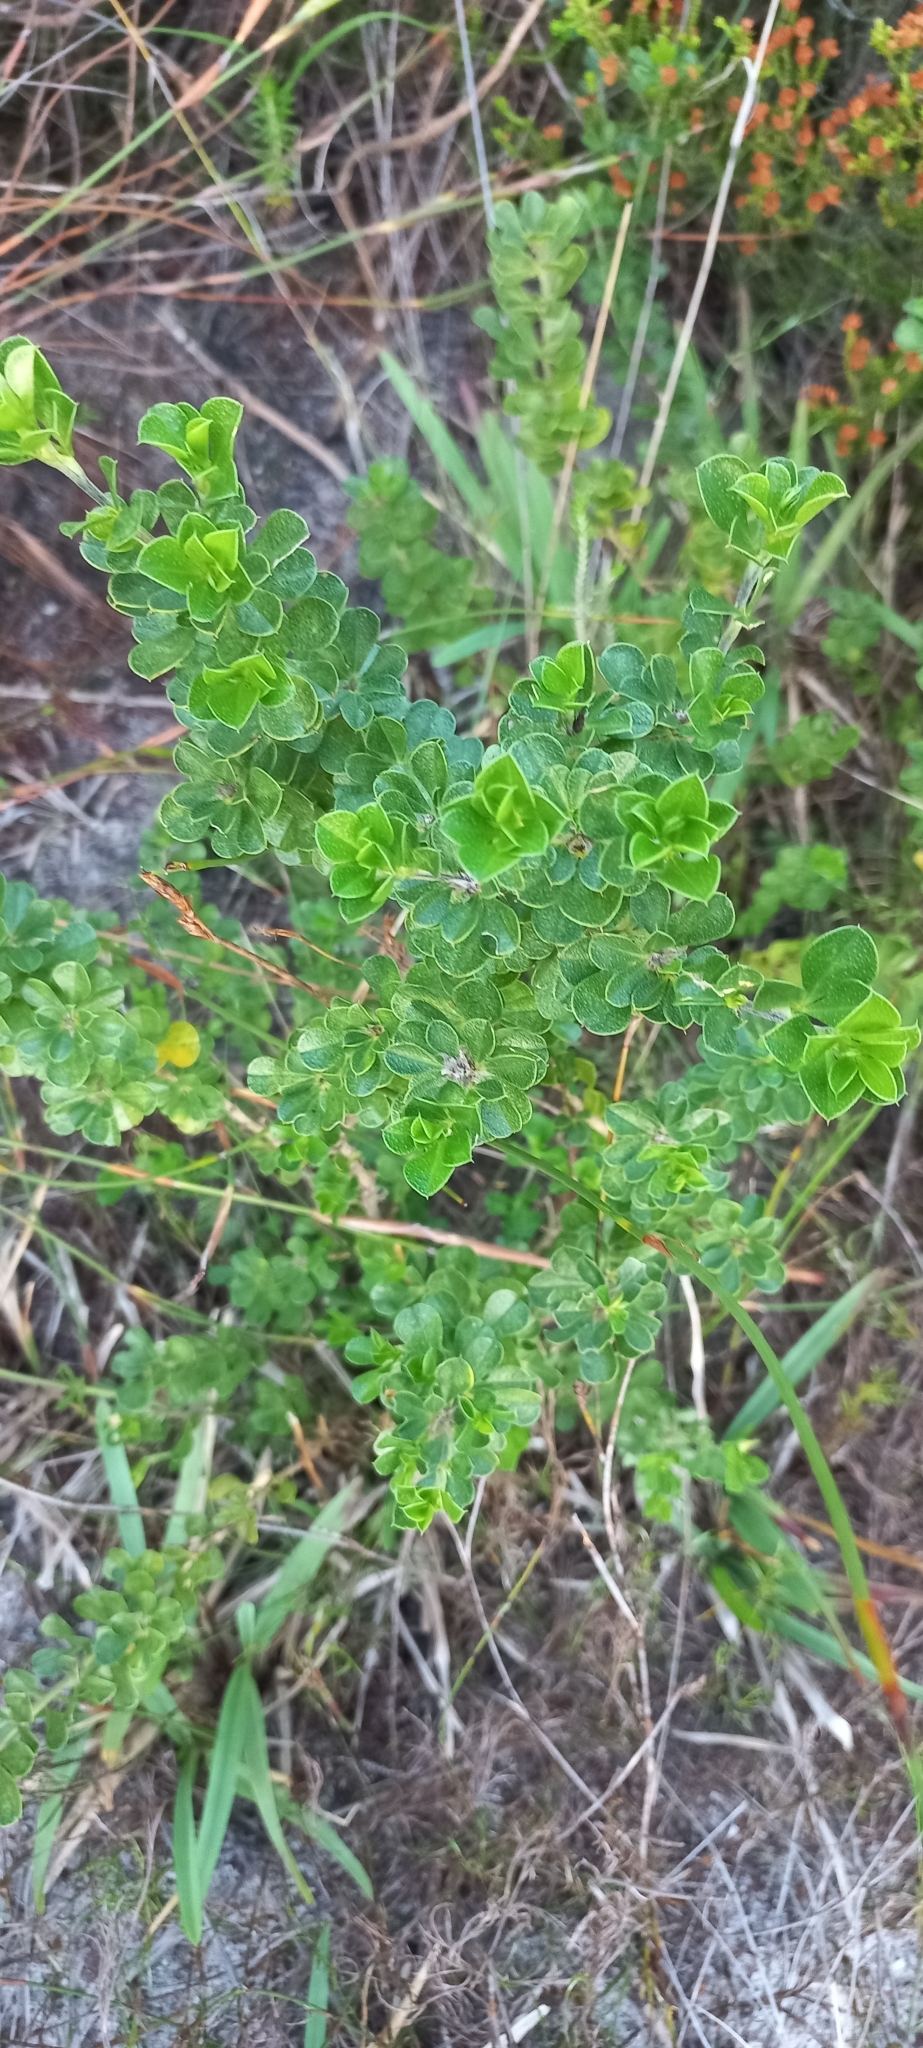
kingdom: Plantae
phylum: Tracheophyta
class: Magnoliopsida
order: Fabales
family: Fabaceae
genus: Psoralea
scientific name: Psoralea bracteolata
